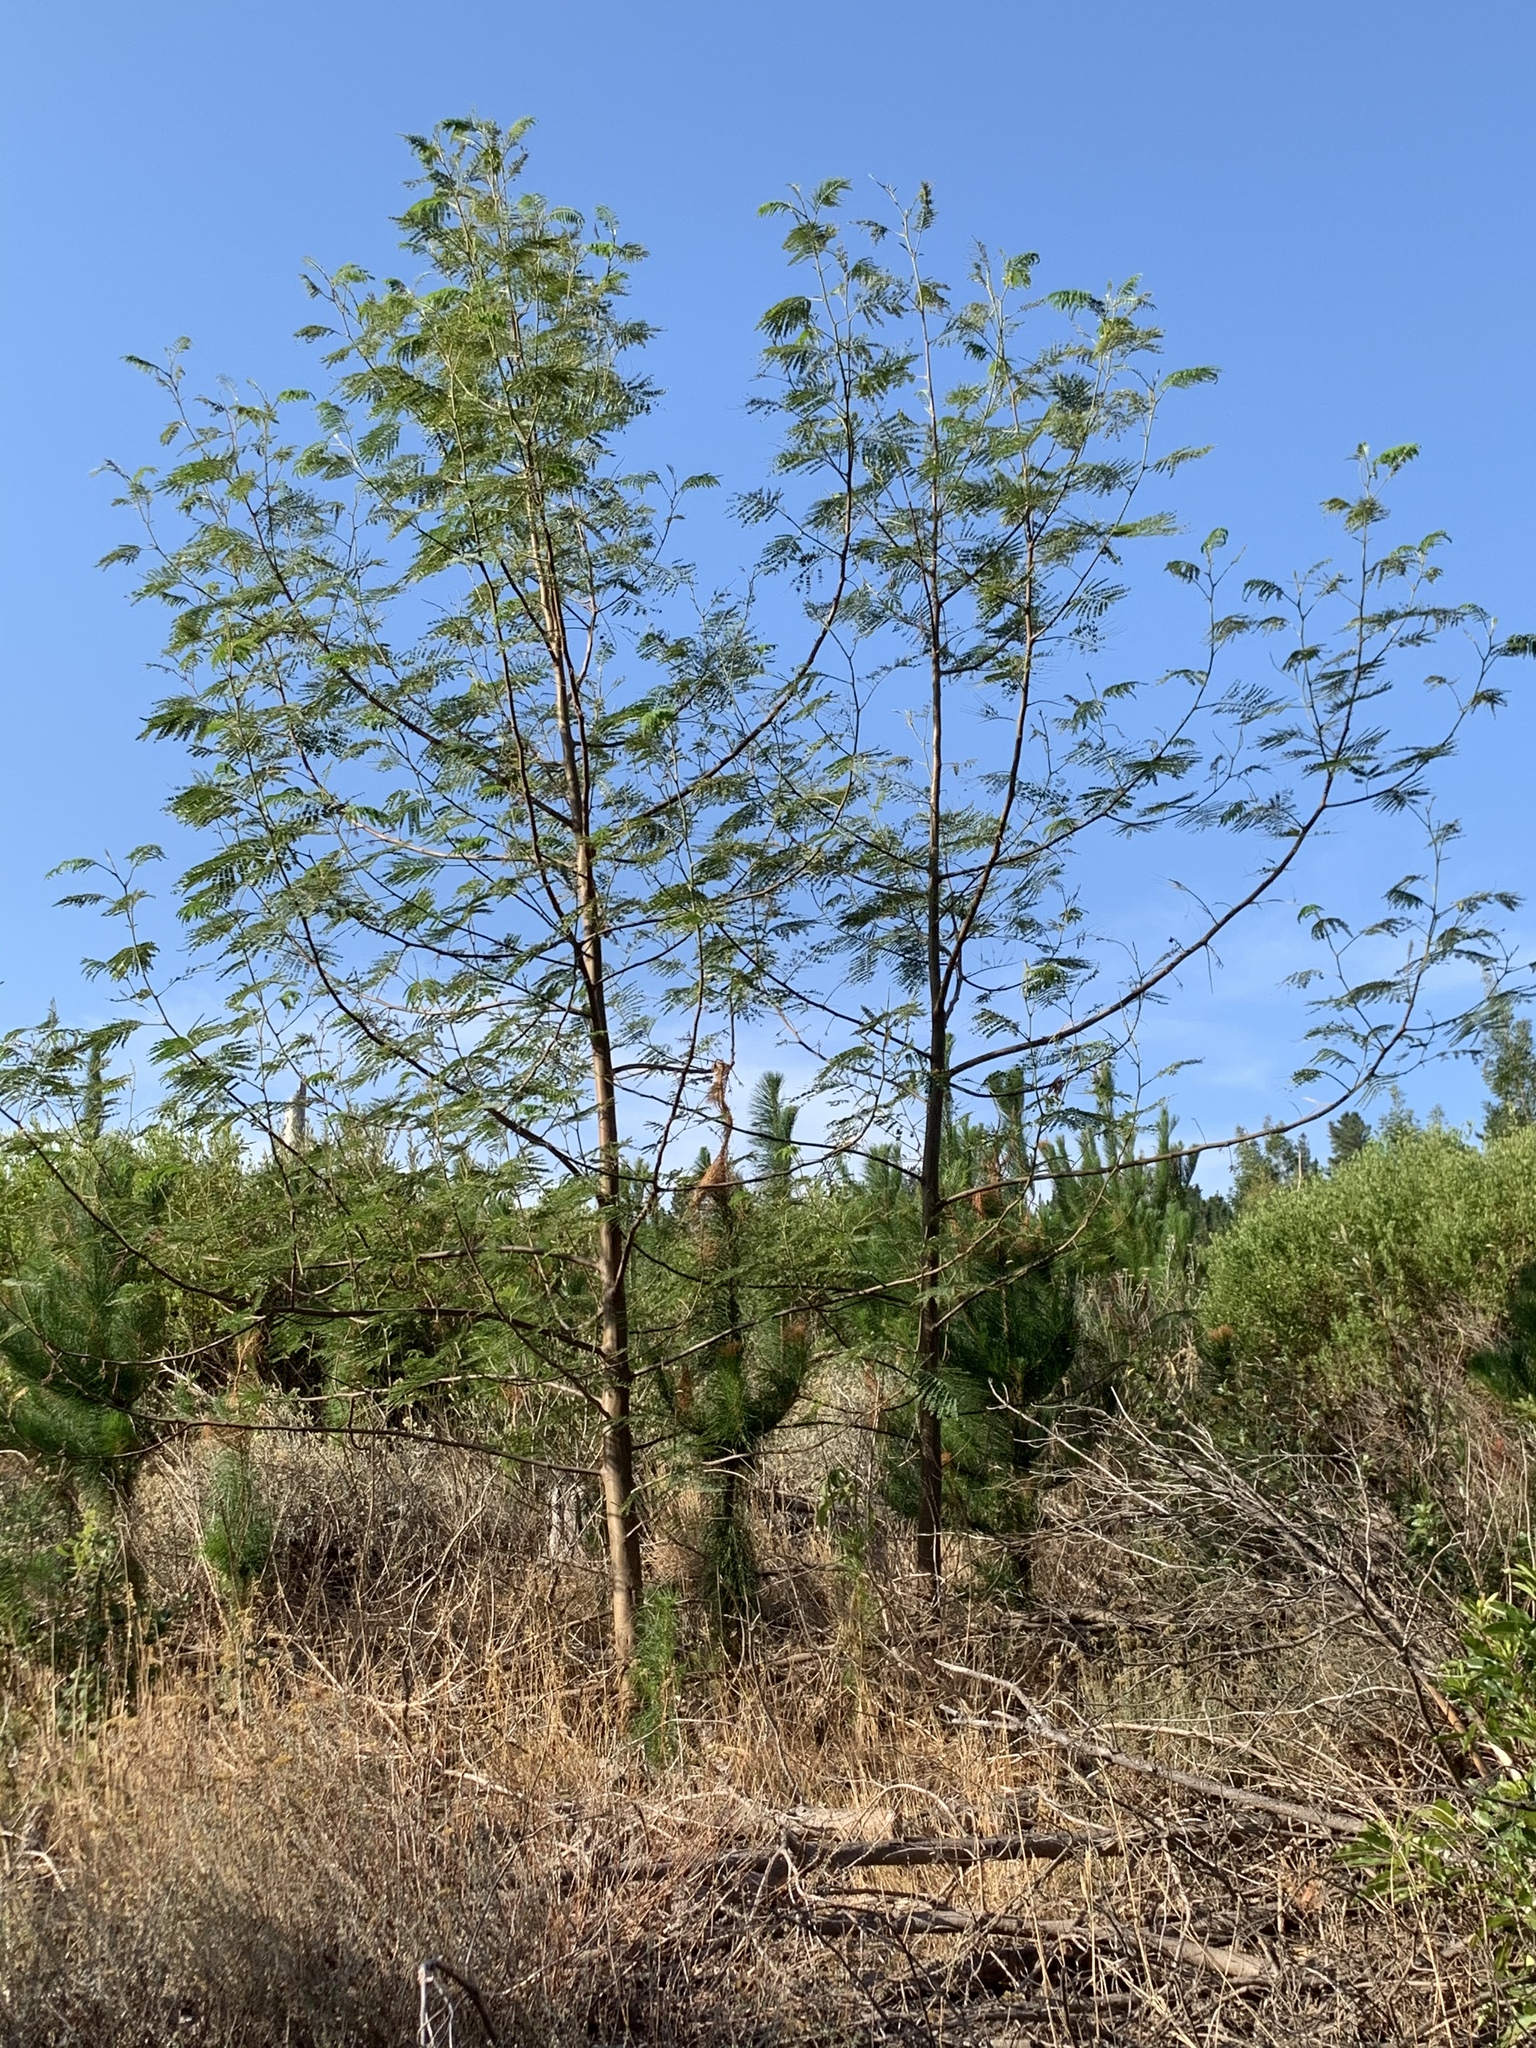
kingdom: Plantae
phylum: Tracheophyta
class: Magnoliopsida
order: Fabales
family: Fabaceae
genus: Paraserianthes
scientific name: Paraserianthes lophantha
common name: Plume albizia
